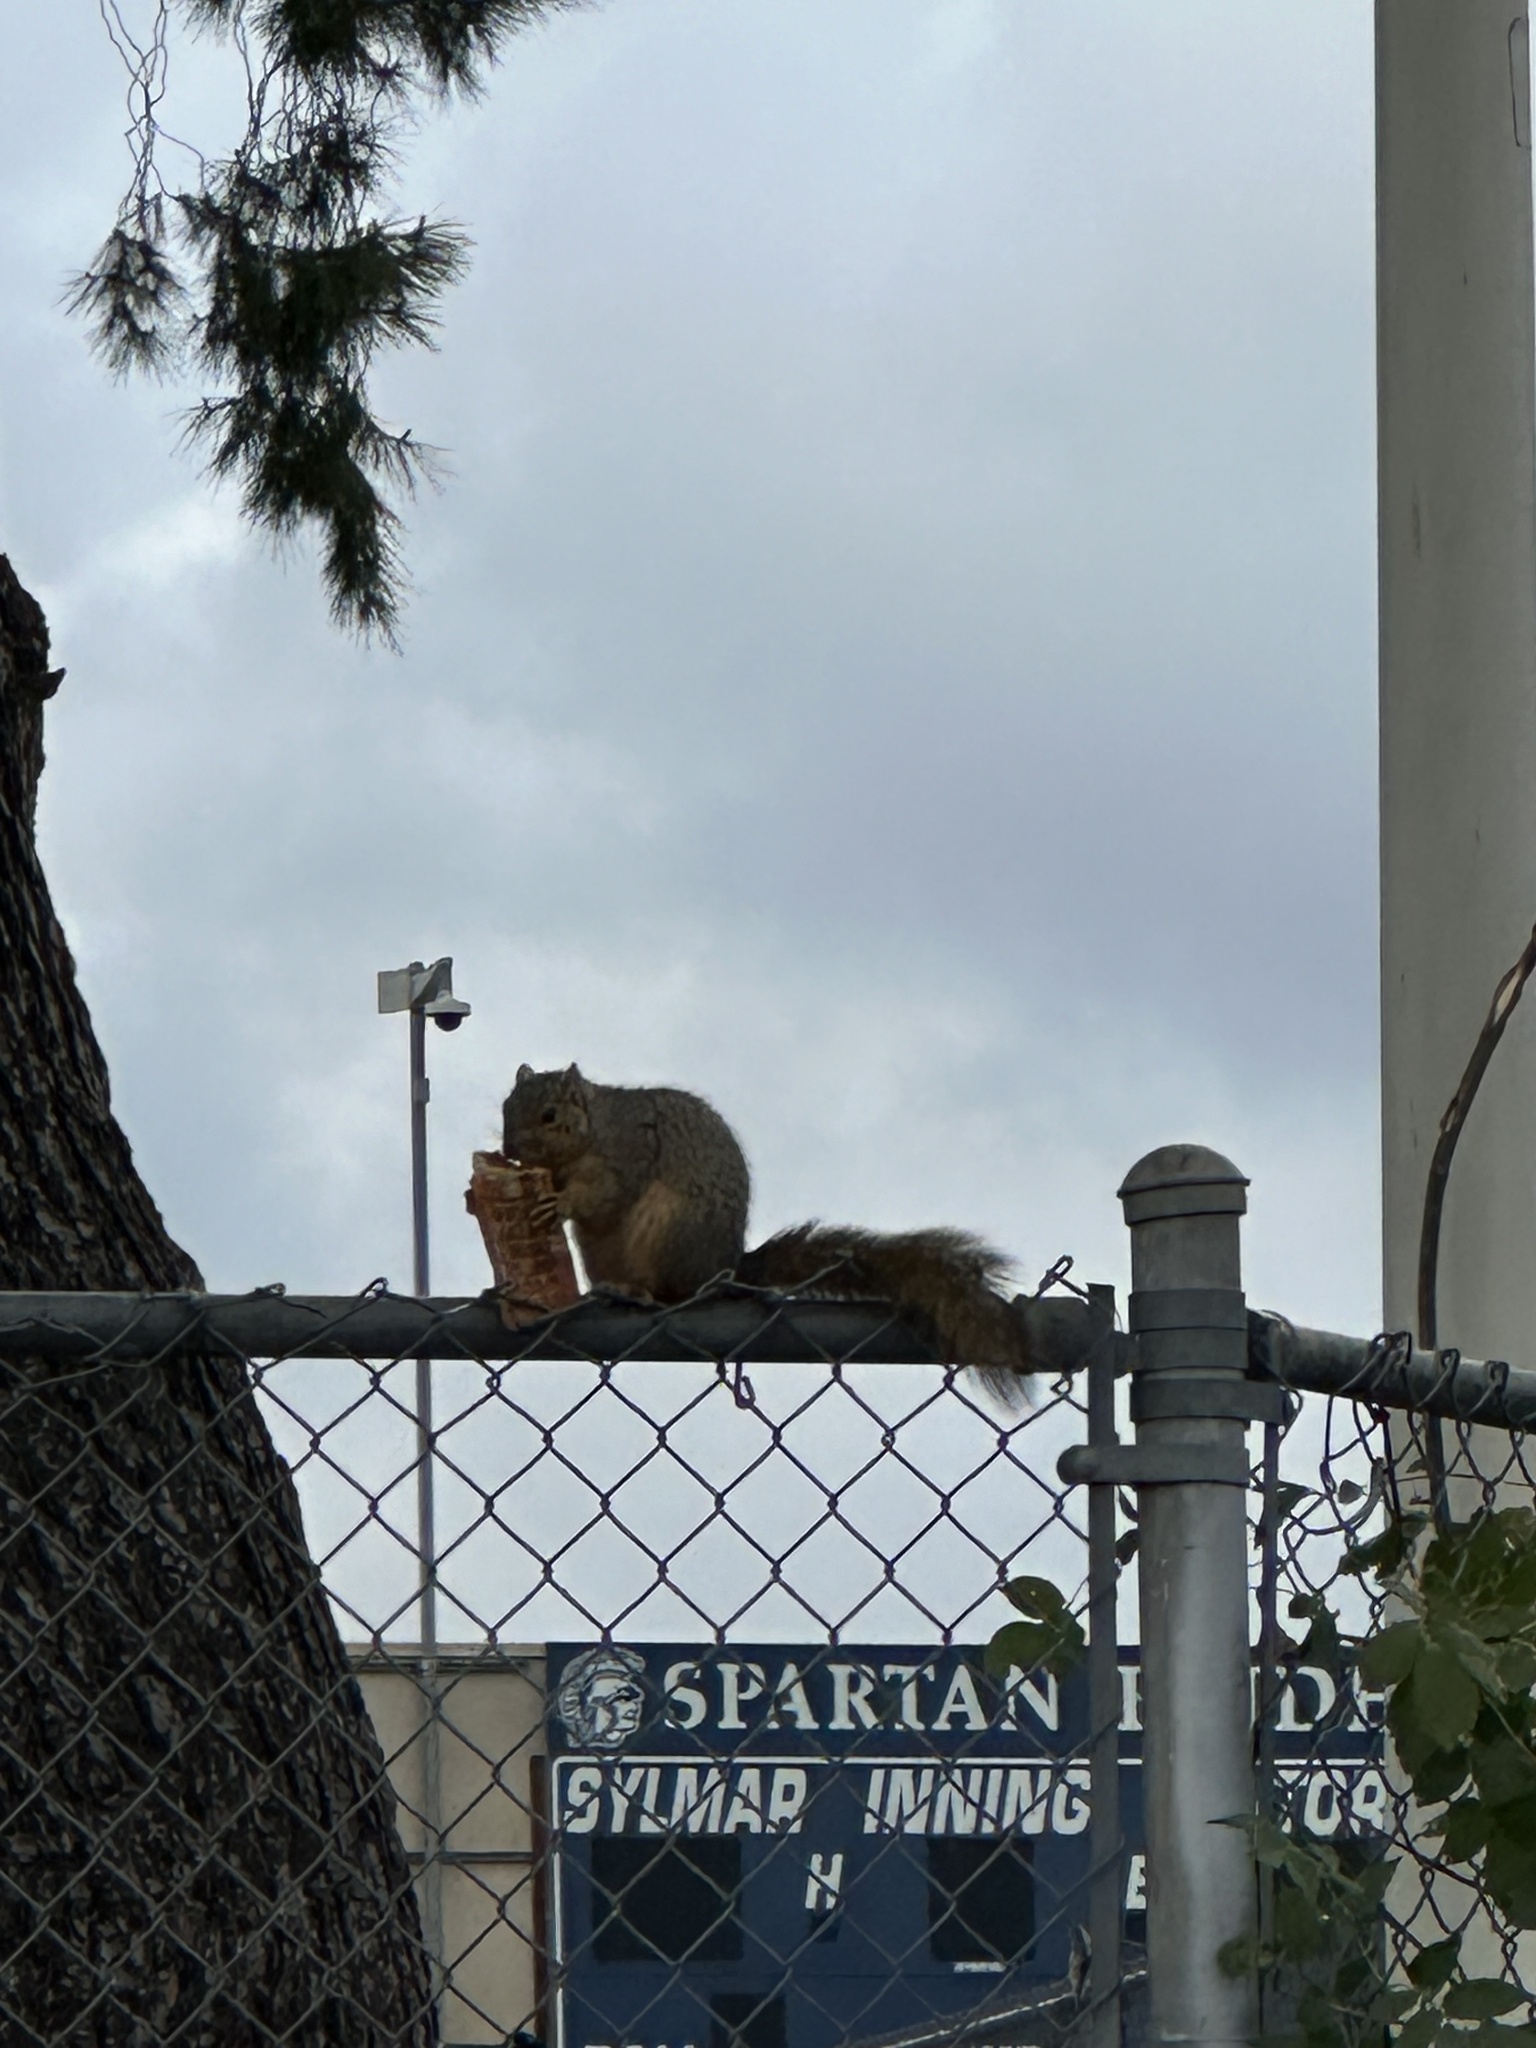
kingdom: Animalia
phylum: Chordata
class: Mammalia
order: Rodentia
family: Sciuridae
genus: Sciurus
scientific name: Sciurus niger
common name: Fox squirrel
